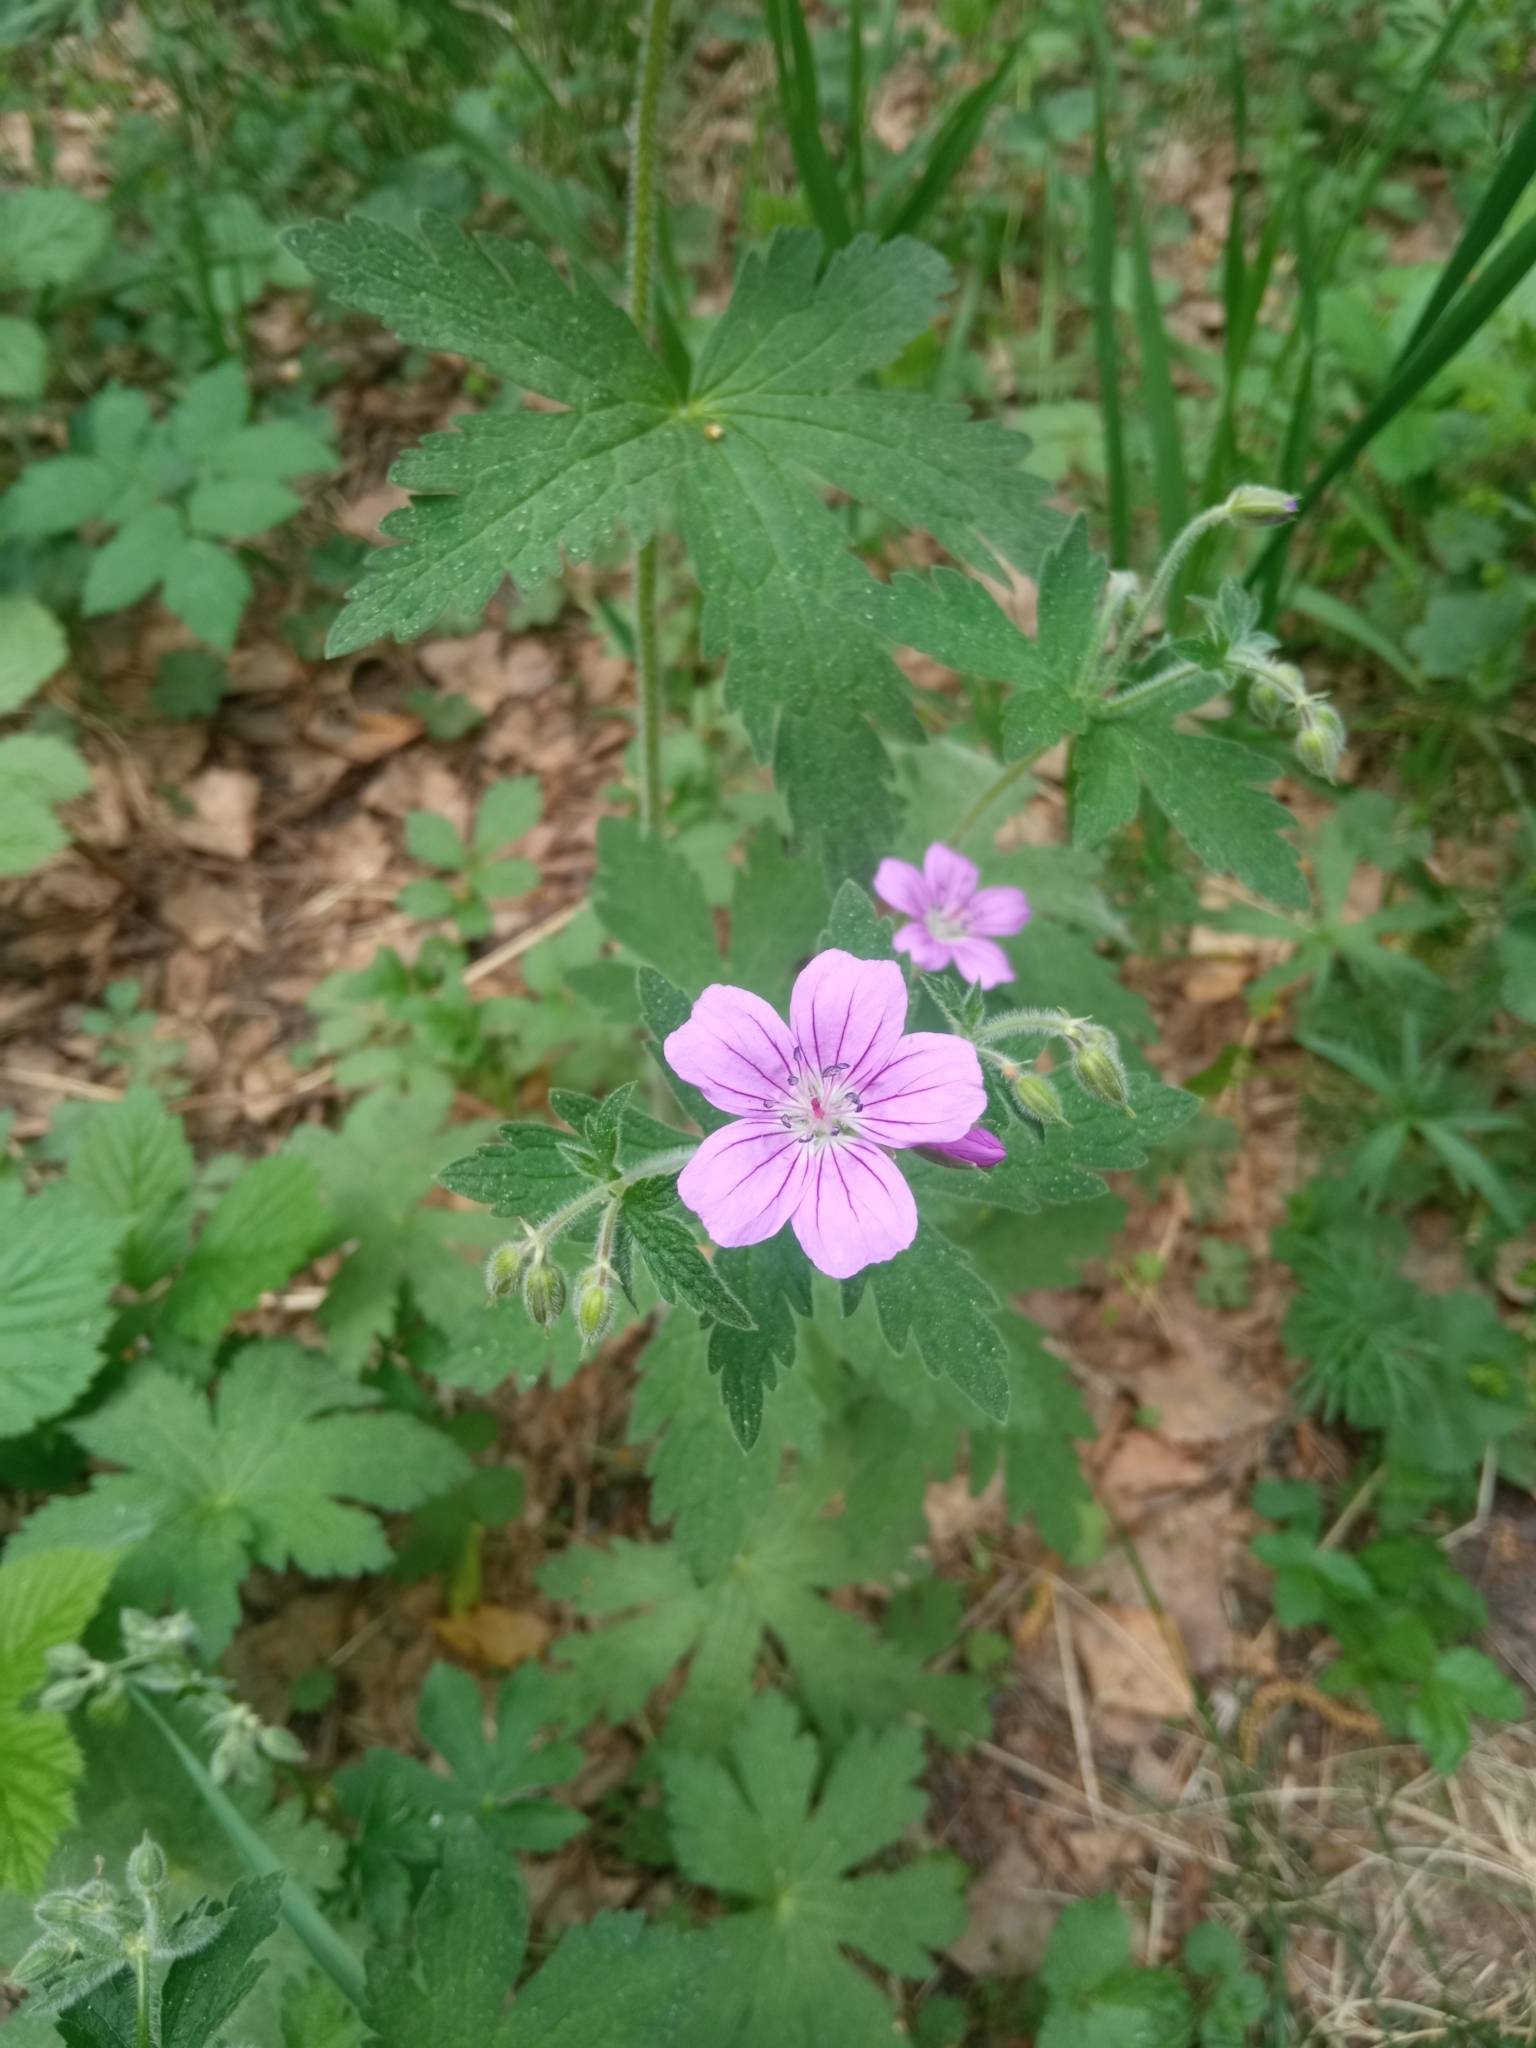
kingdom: Plantae
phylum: Tracheophyta
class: Magnoliopsida
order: Geraniales
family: Geraniaceae
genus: Geranium
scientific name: Geranium sylvaticum
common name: Wood crane's-bill
